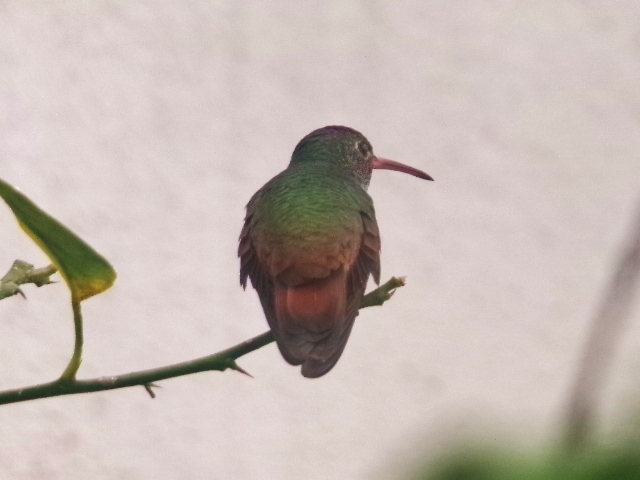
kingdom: Animalia
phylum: Chordata
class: Aves
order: Apodiformes
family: Trochilidae
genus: Amazilia
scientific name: Amazilia yucatanensis
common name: Buff-bellied hummingbird
